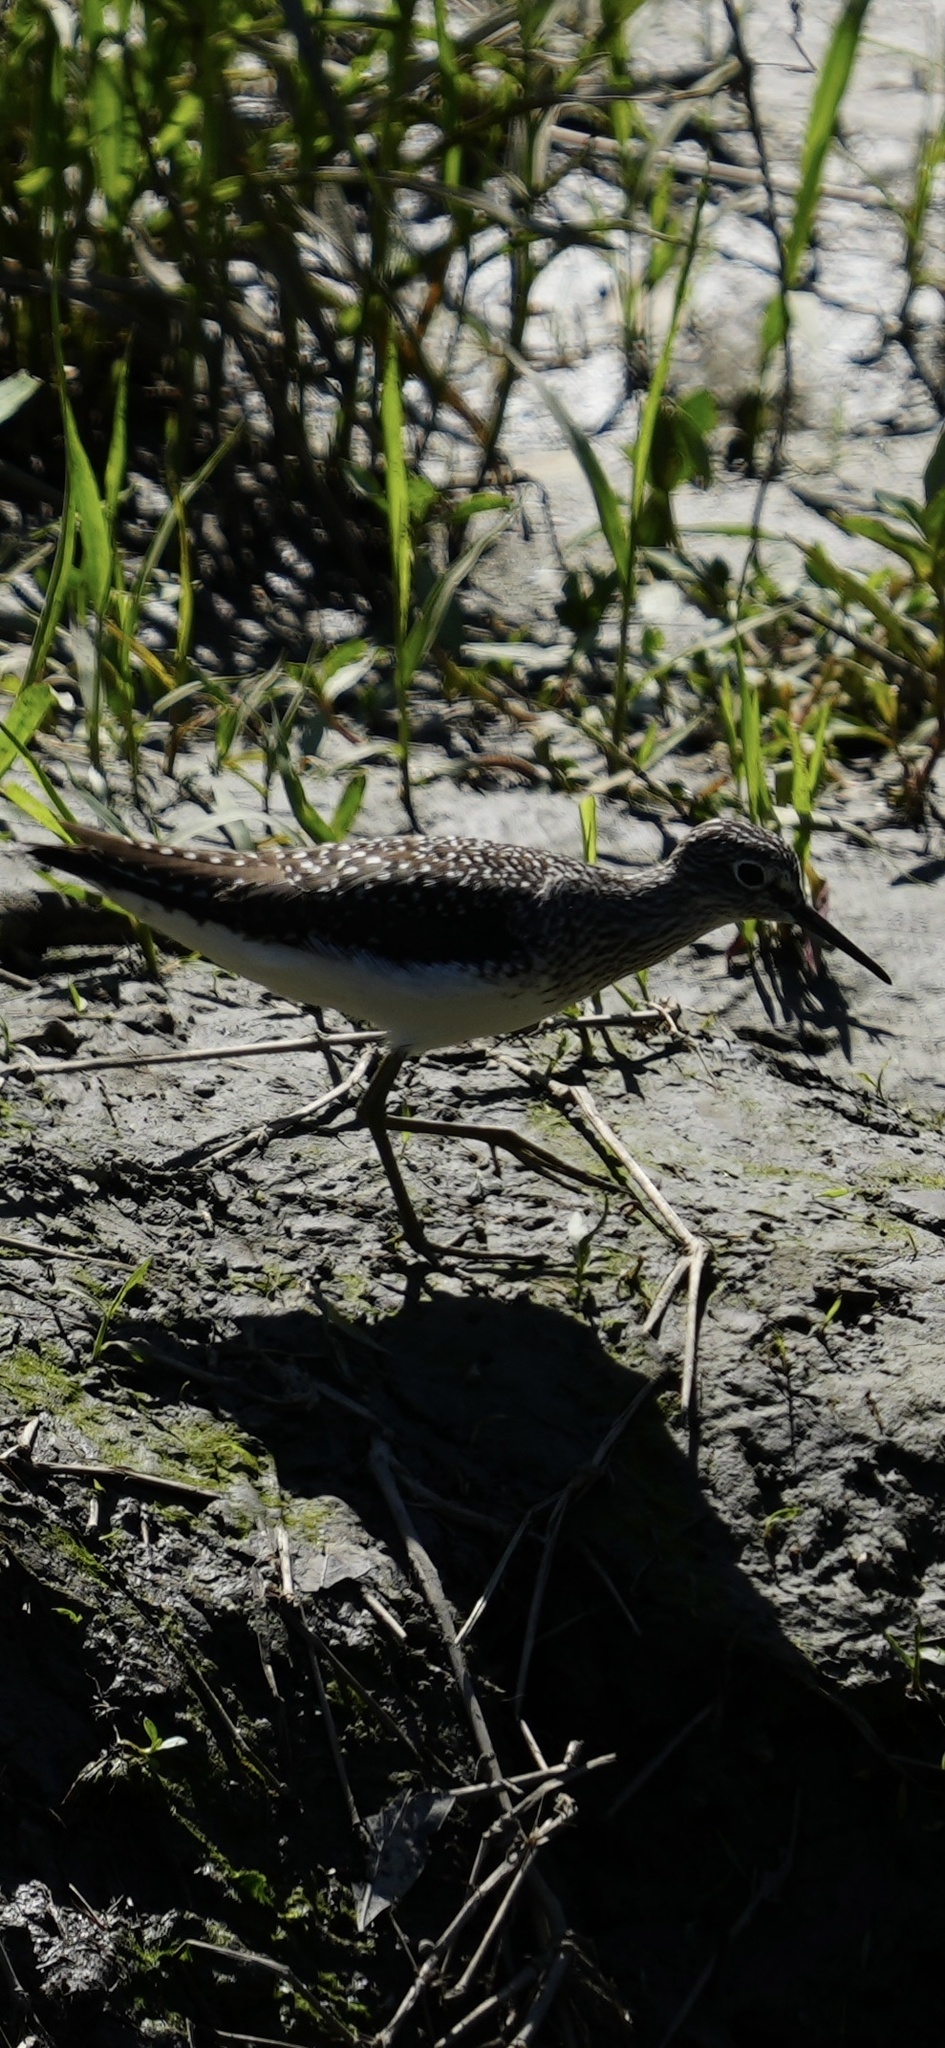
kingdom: Animalia
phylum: Chordata
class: Aves
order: Charadriiformes
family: Scolopacidae
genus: Tringa
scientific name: Tringa solitaria
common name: Solitary sandpiper
